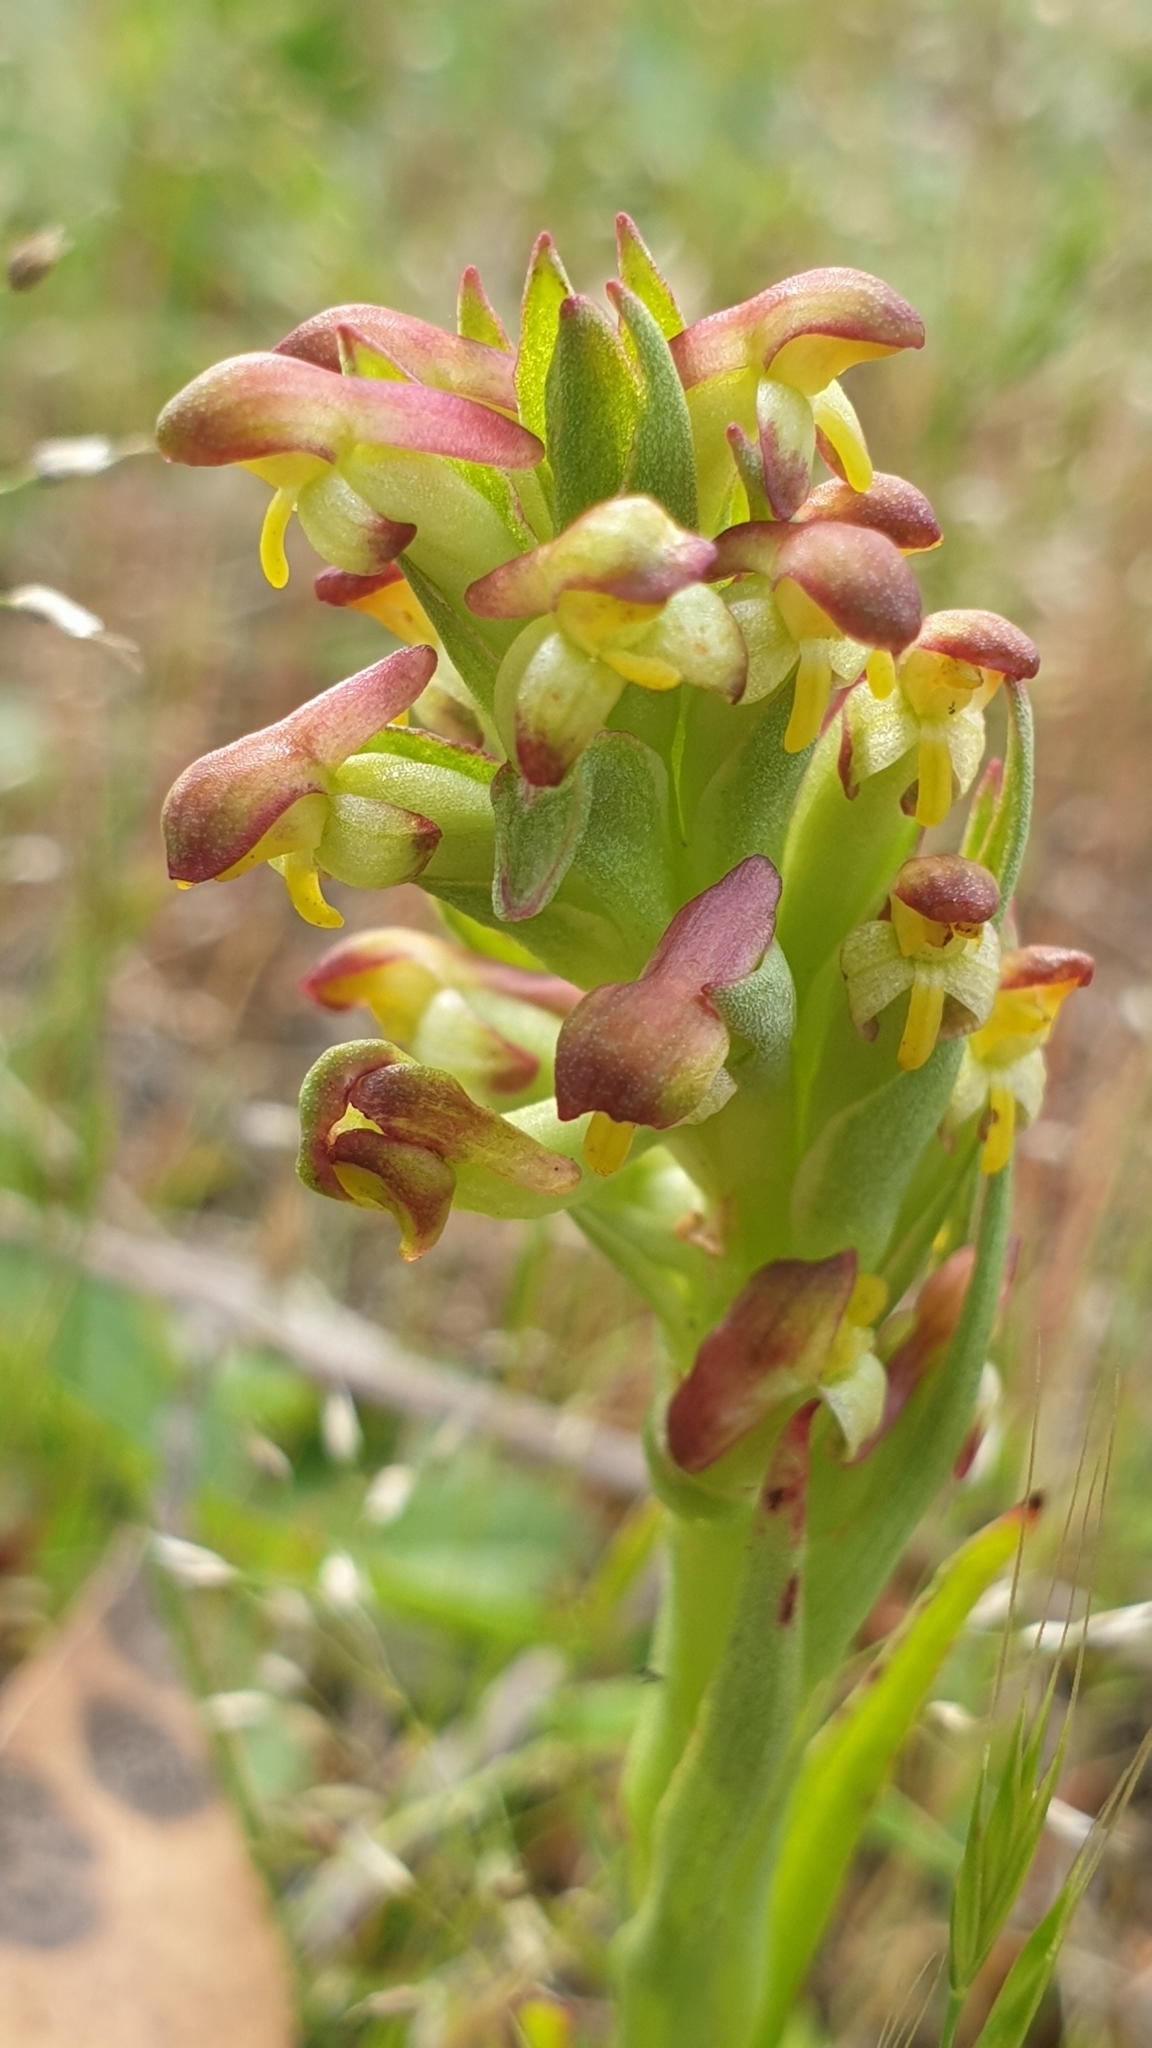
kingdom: Plantae
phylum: Tracheophyta
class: Liliopsida
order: Asparagales
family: Orchidaceae
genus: Disa
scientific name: Disa bracteata
